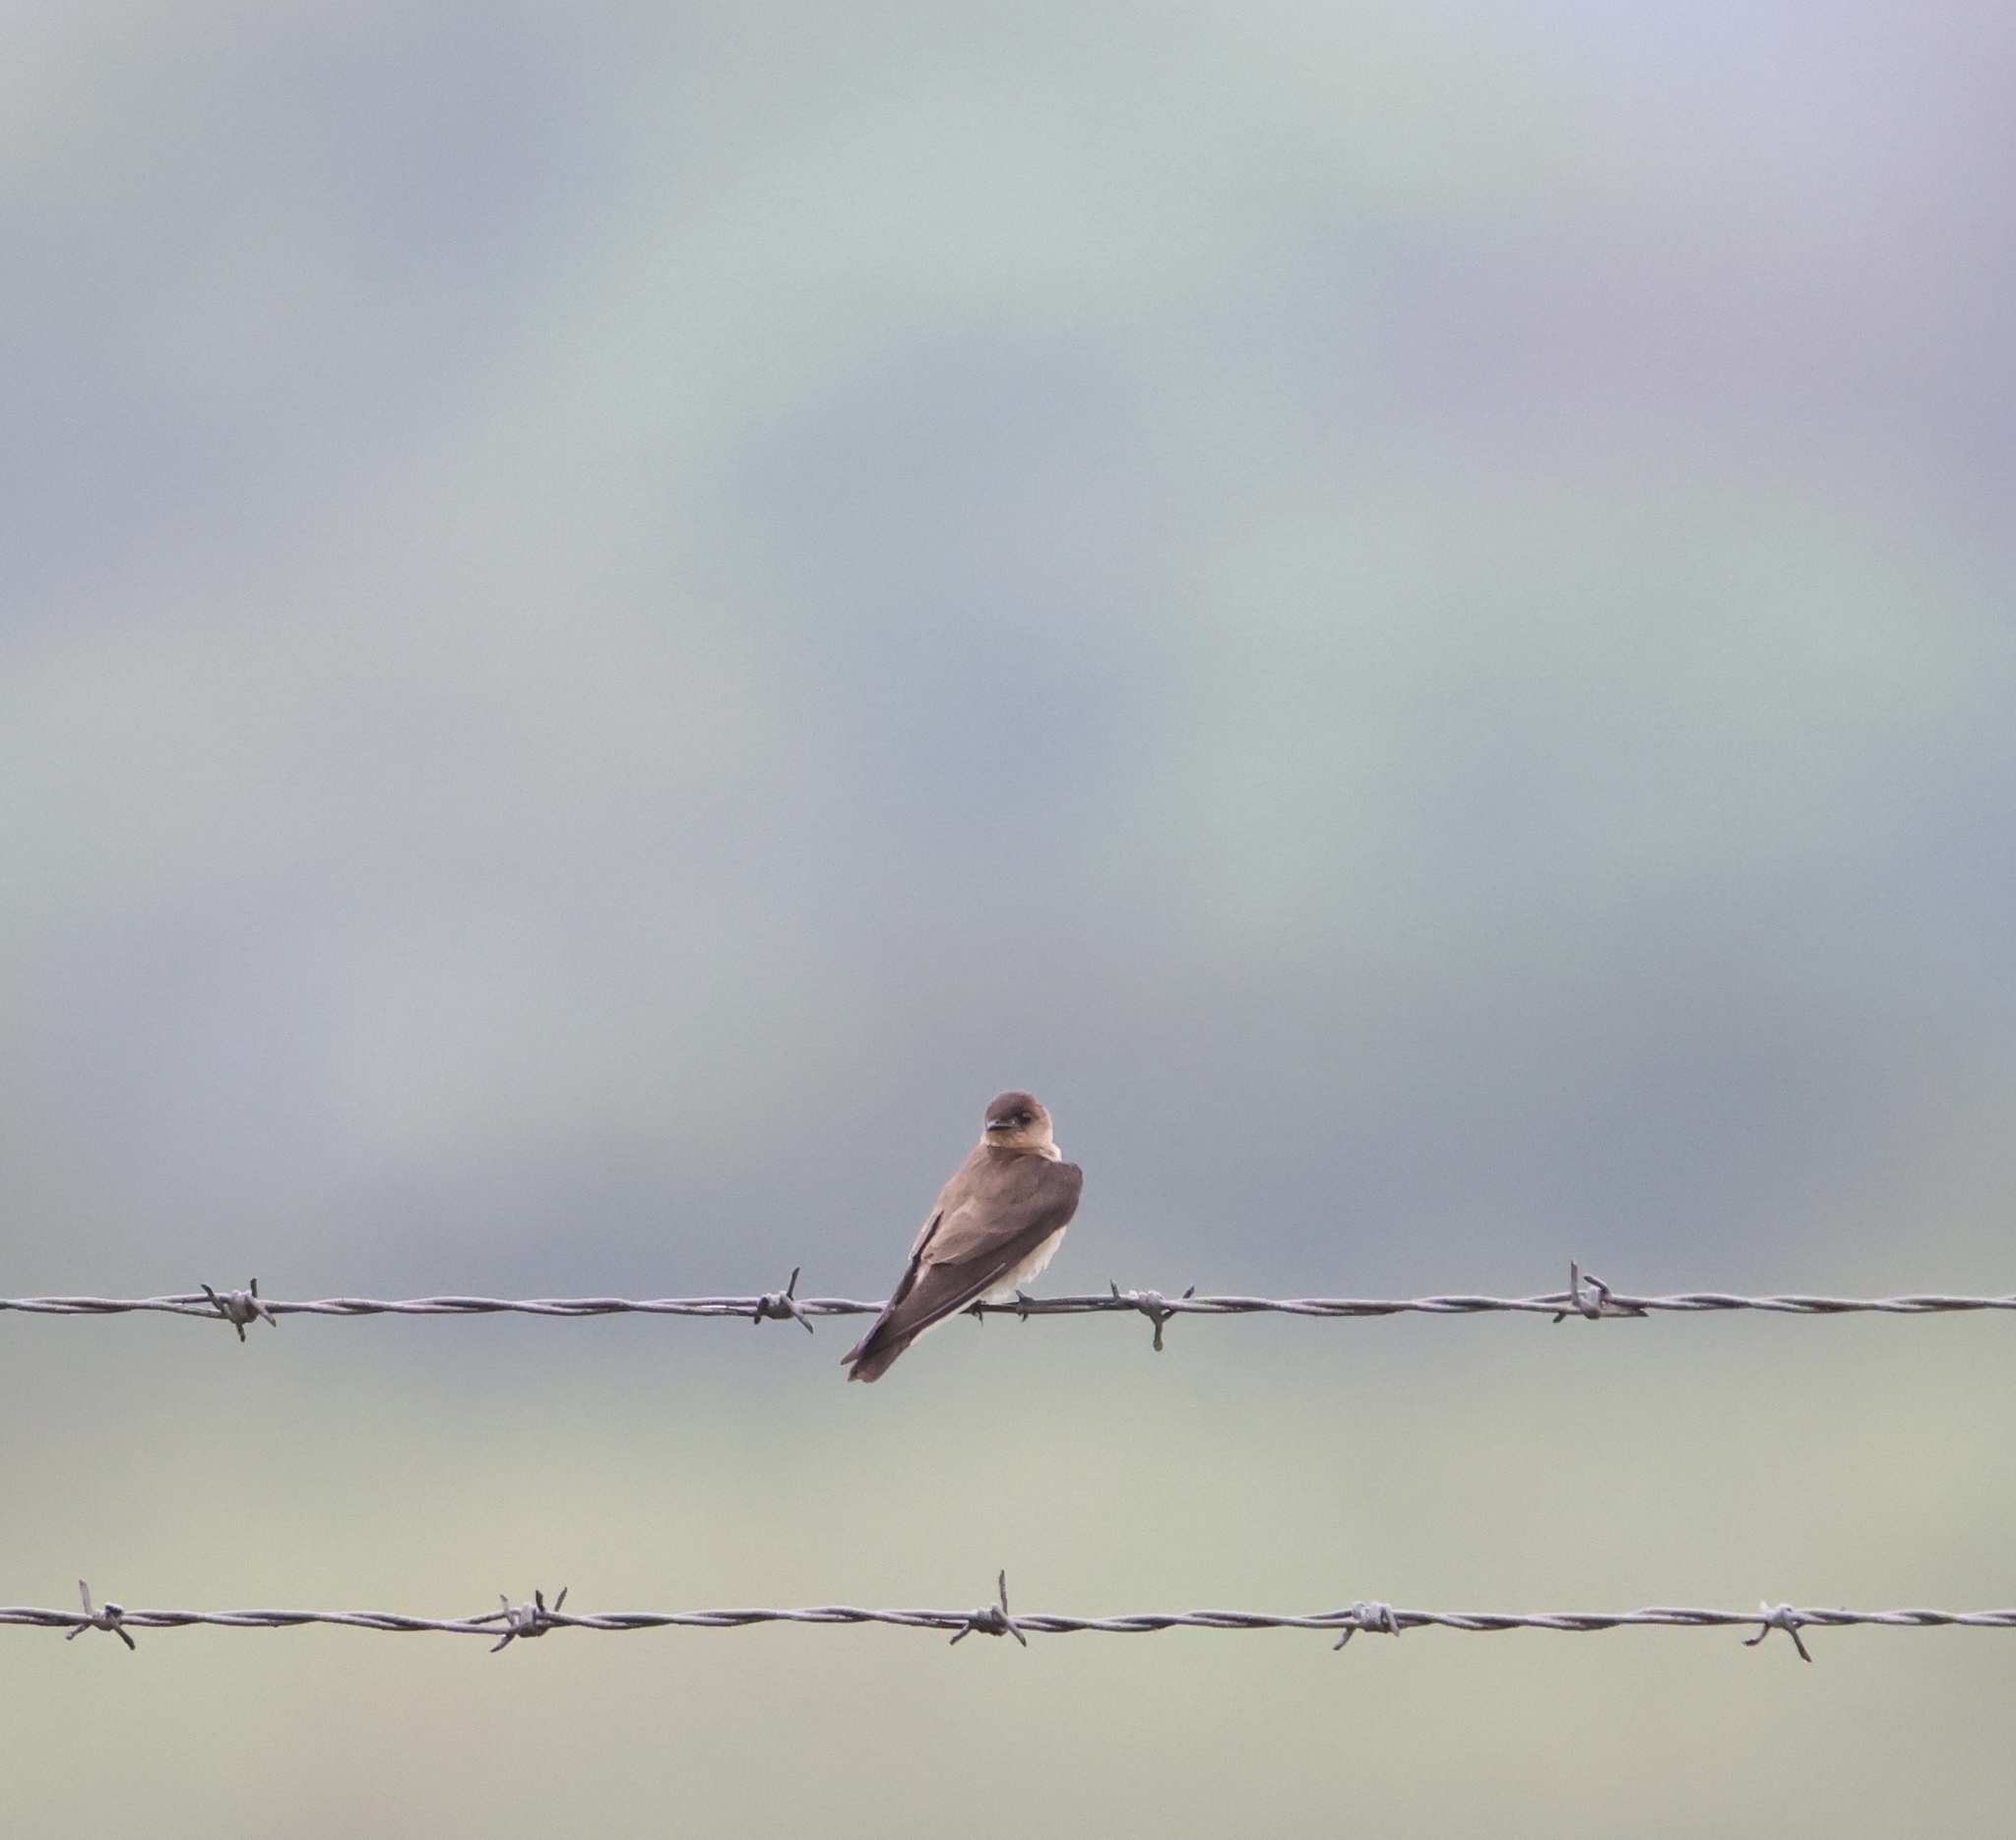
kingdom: Animalia
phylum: Chordata
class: Aves
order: Passeriformes
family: Hirundinidae
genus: Stelgidopteryx
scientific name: Stelgidopteryx ruficollis
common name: Southern rough-winged swallow
